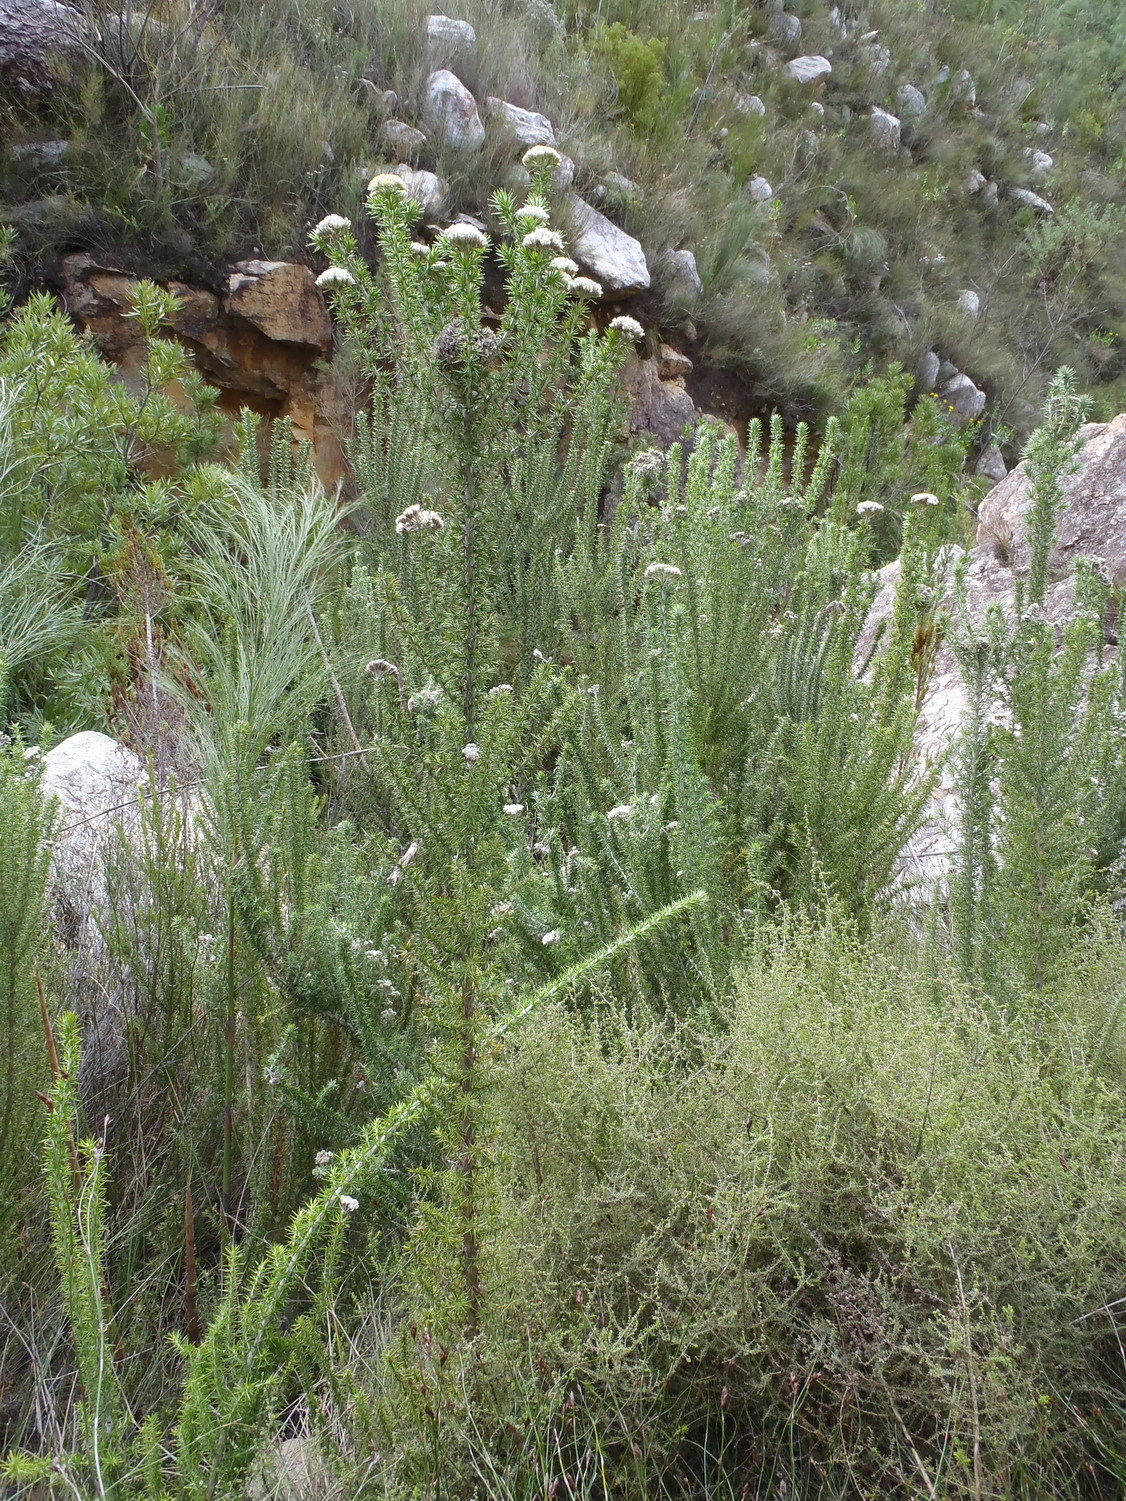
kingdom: Plantae
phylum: Tracheophyta
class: Magnoliopsida
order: Asterales
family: Asteraceae
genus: Metalasia
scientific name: Metalasia acuta
